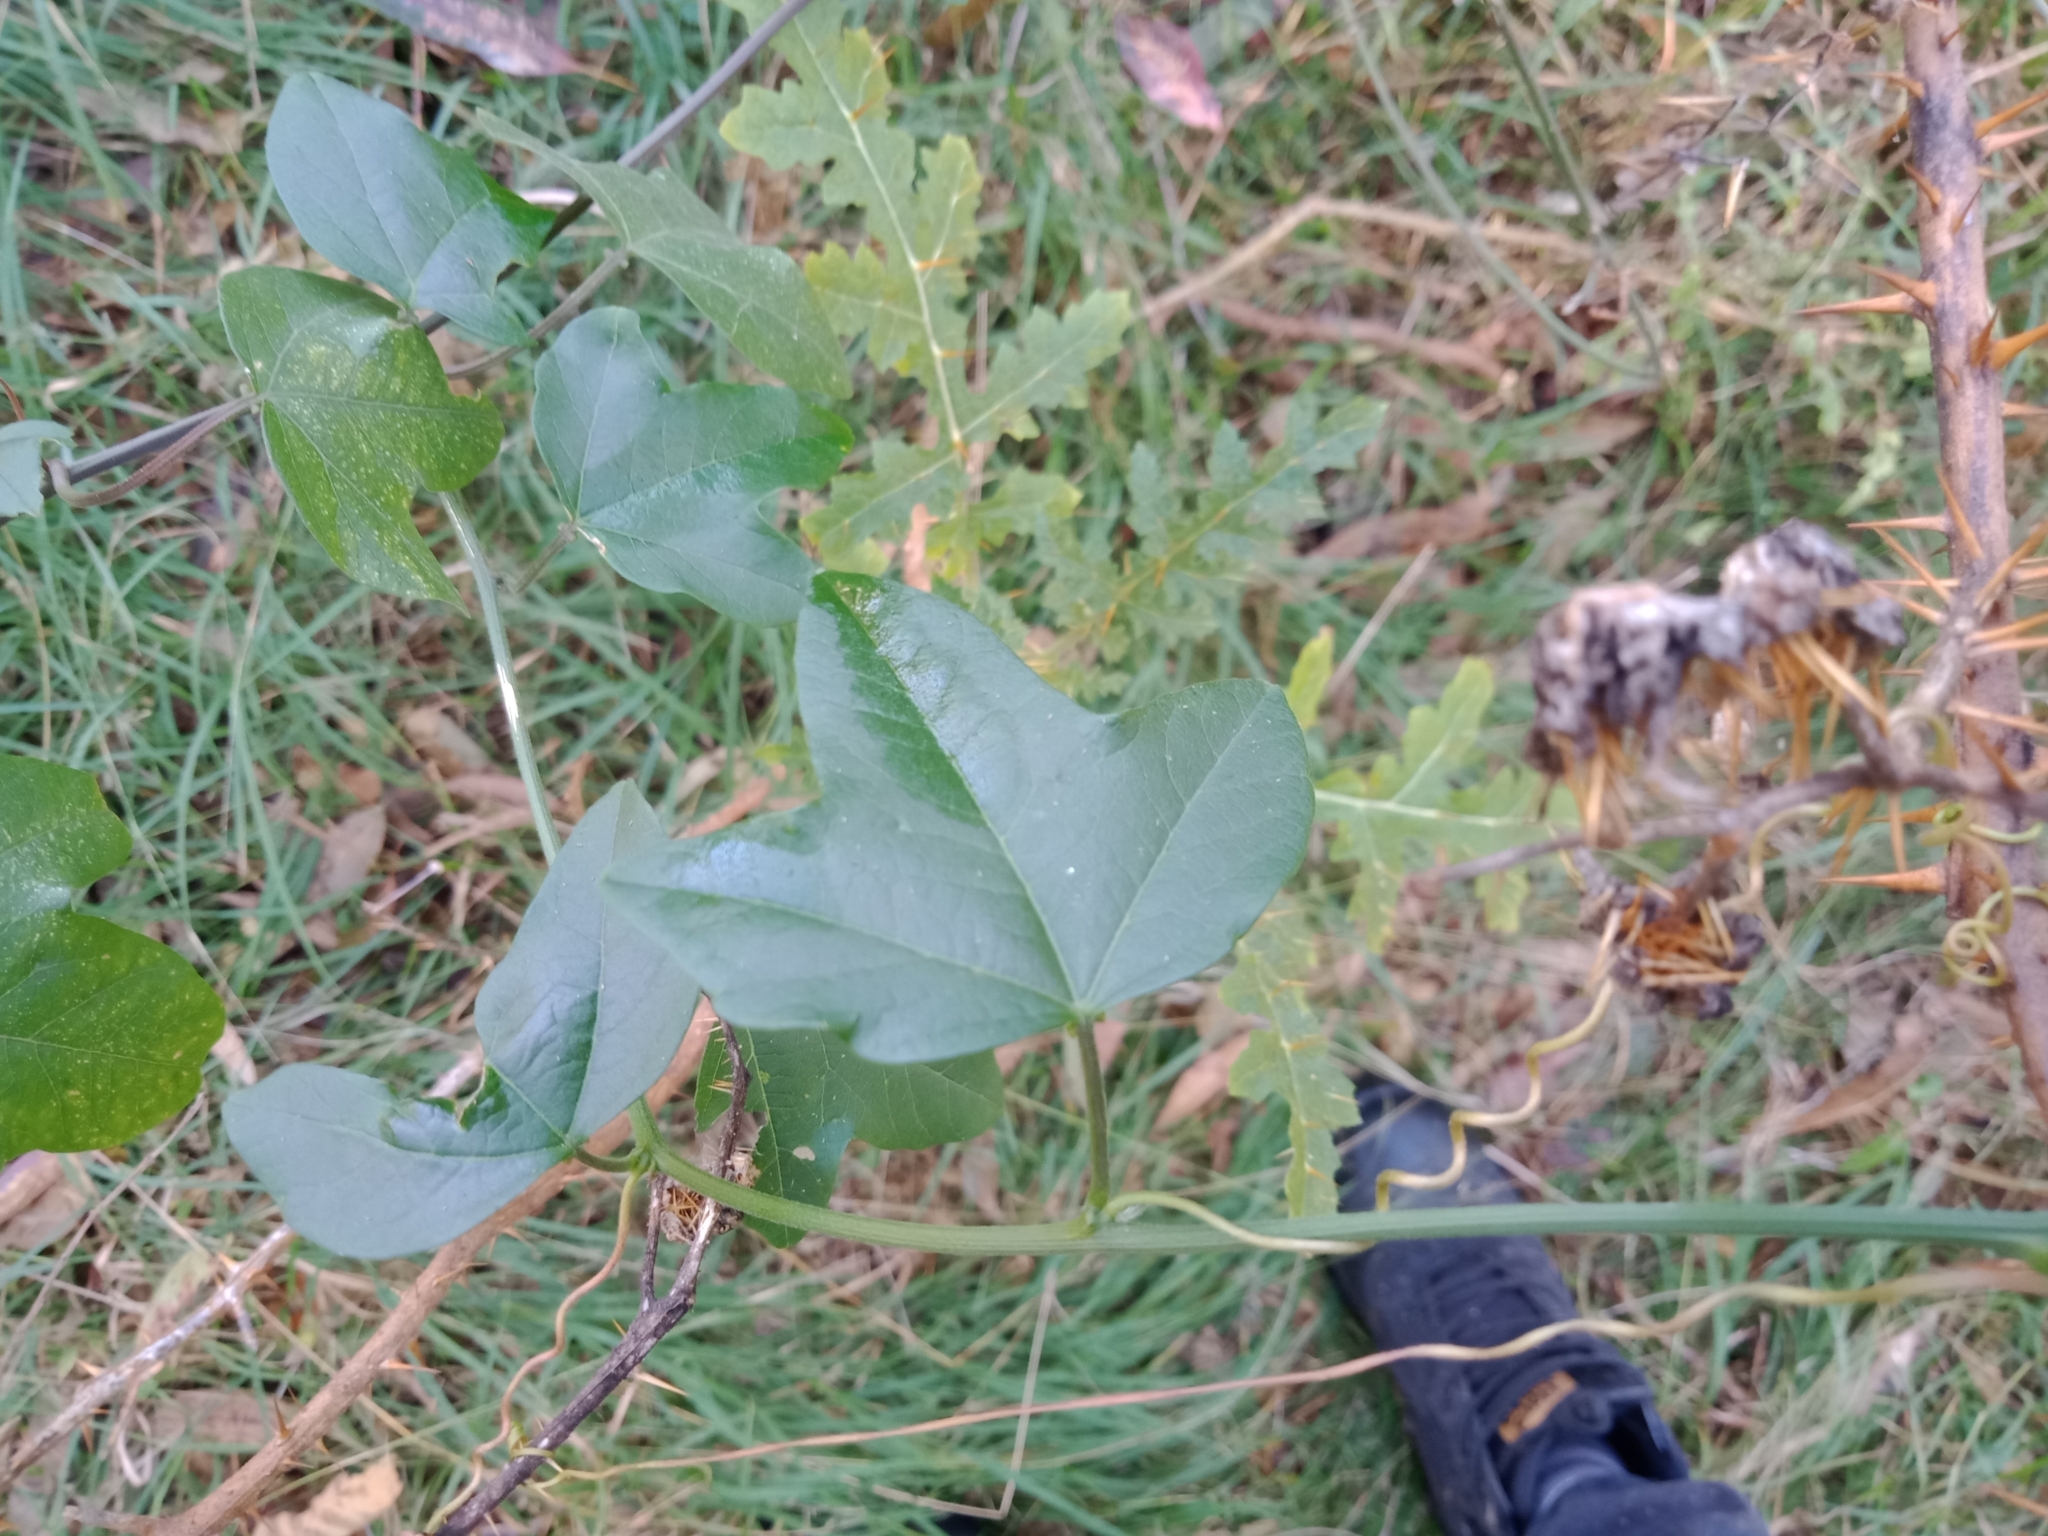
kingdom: Plantae
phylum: Tracheophyta
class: Magnoliopsida
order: Solanales
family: Solanaceae
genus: Solanum
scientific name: Solanum sisymbriifolium
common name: Red buffalo-bur
